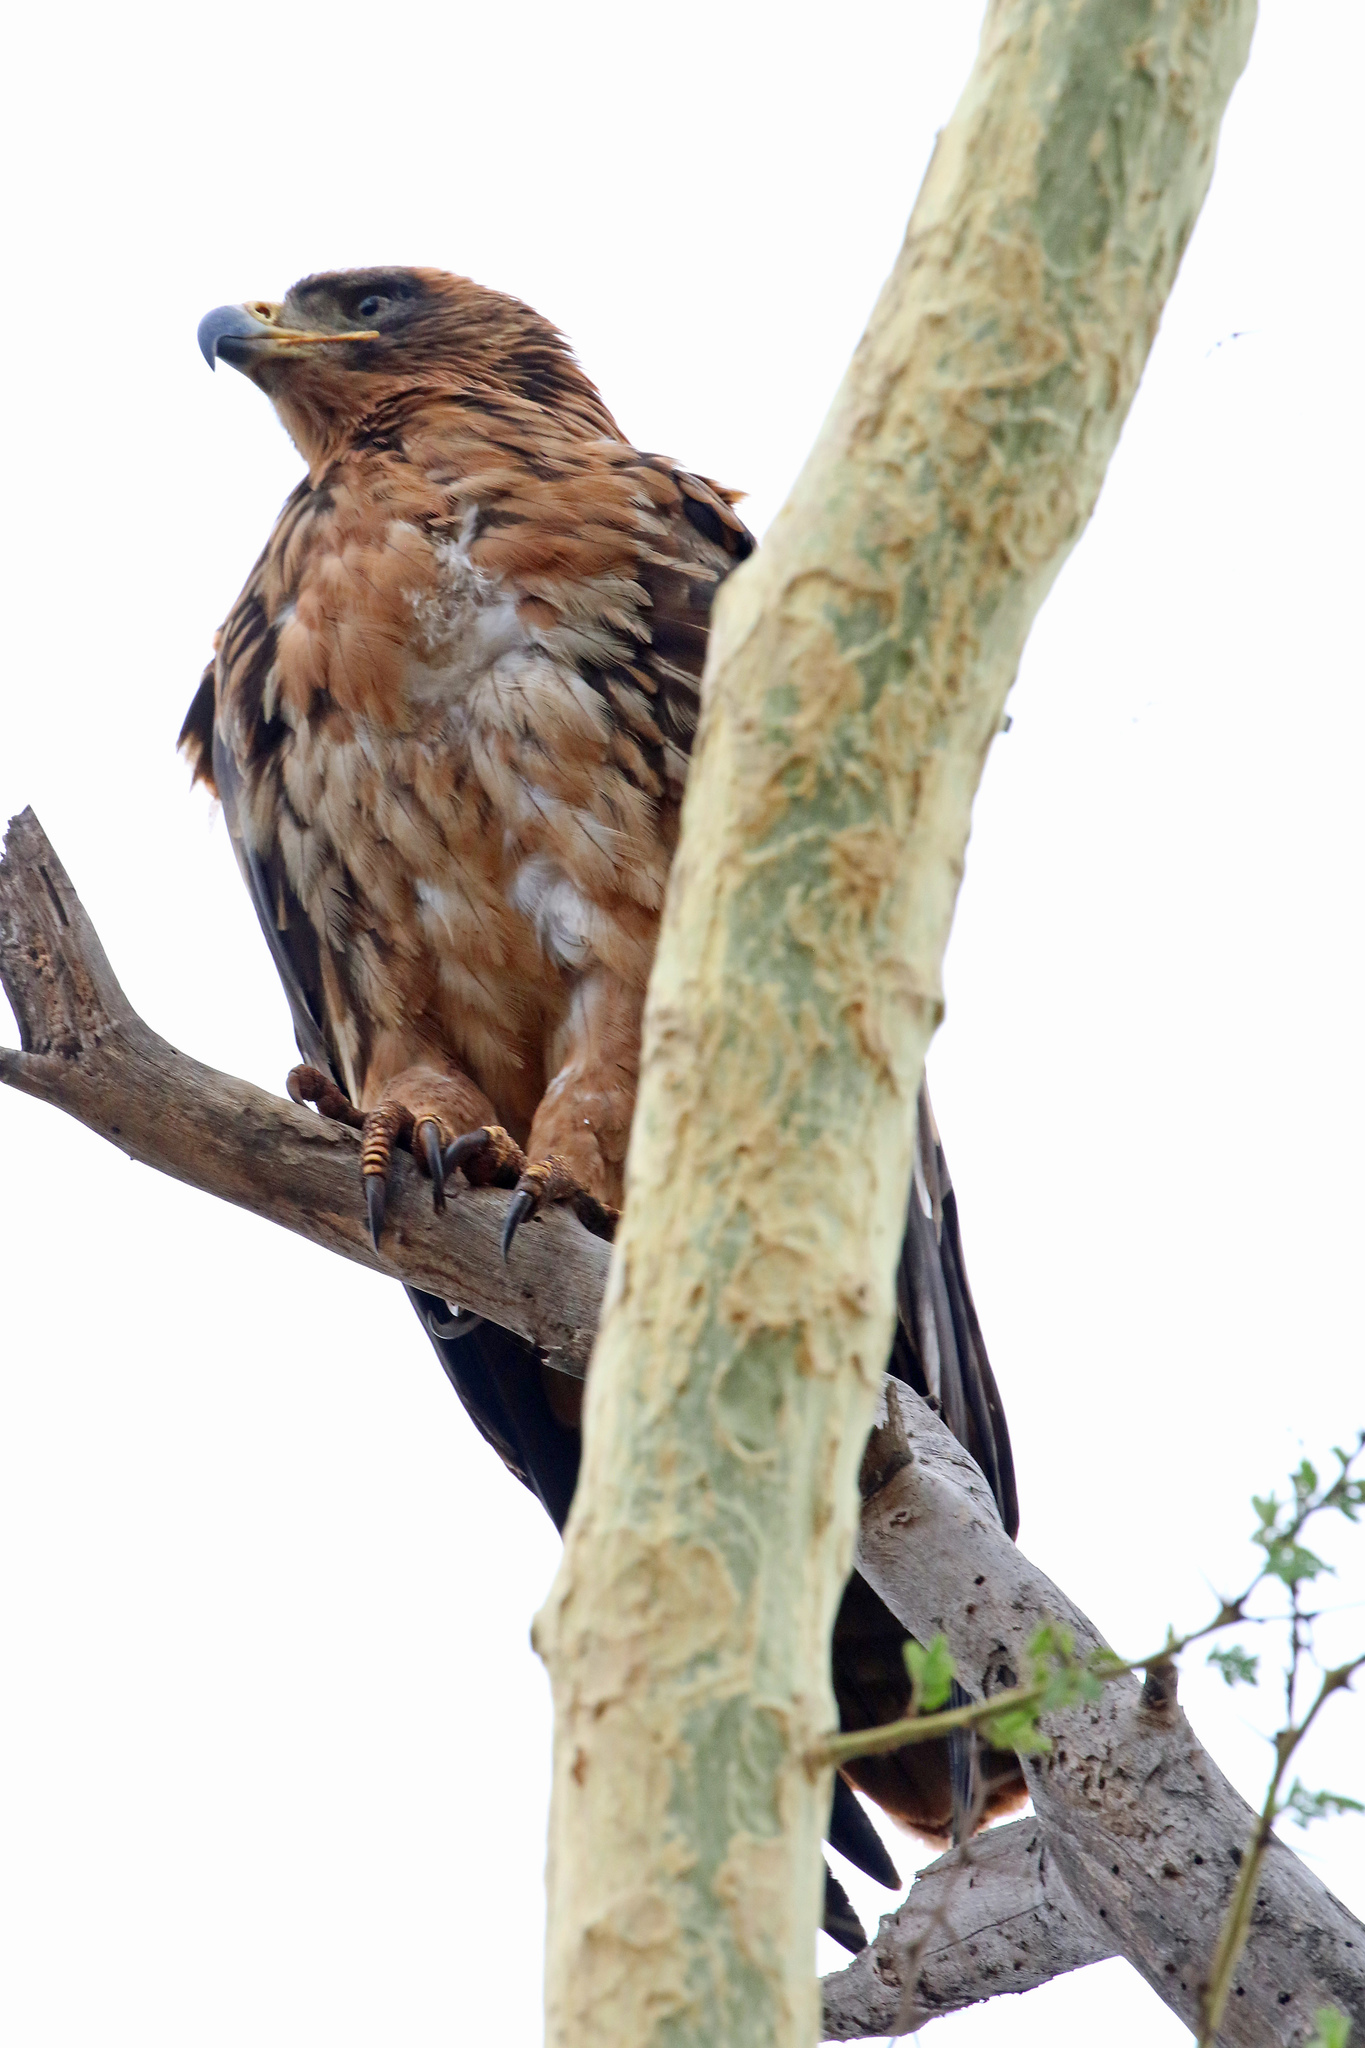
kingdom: Animalia
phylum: Chordata
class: Aves
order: Accipitriformes
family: Accipitridae
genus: Aquila
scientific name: Aquila rapax
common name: Tawny eagle
